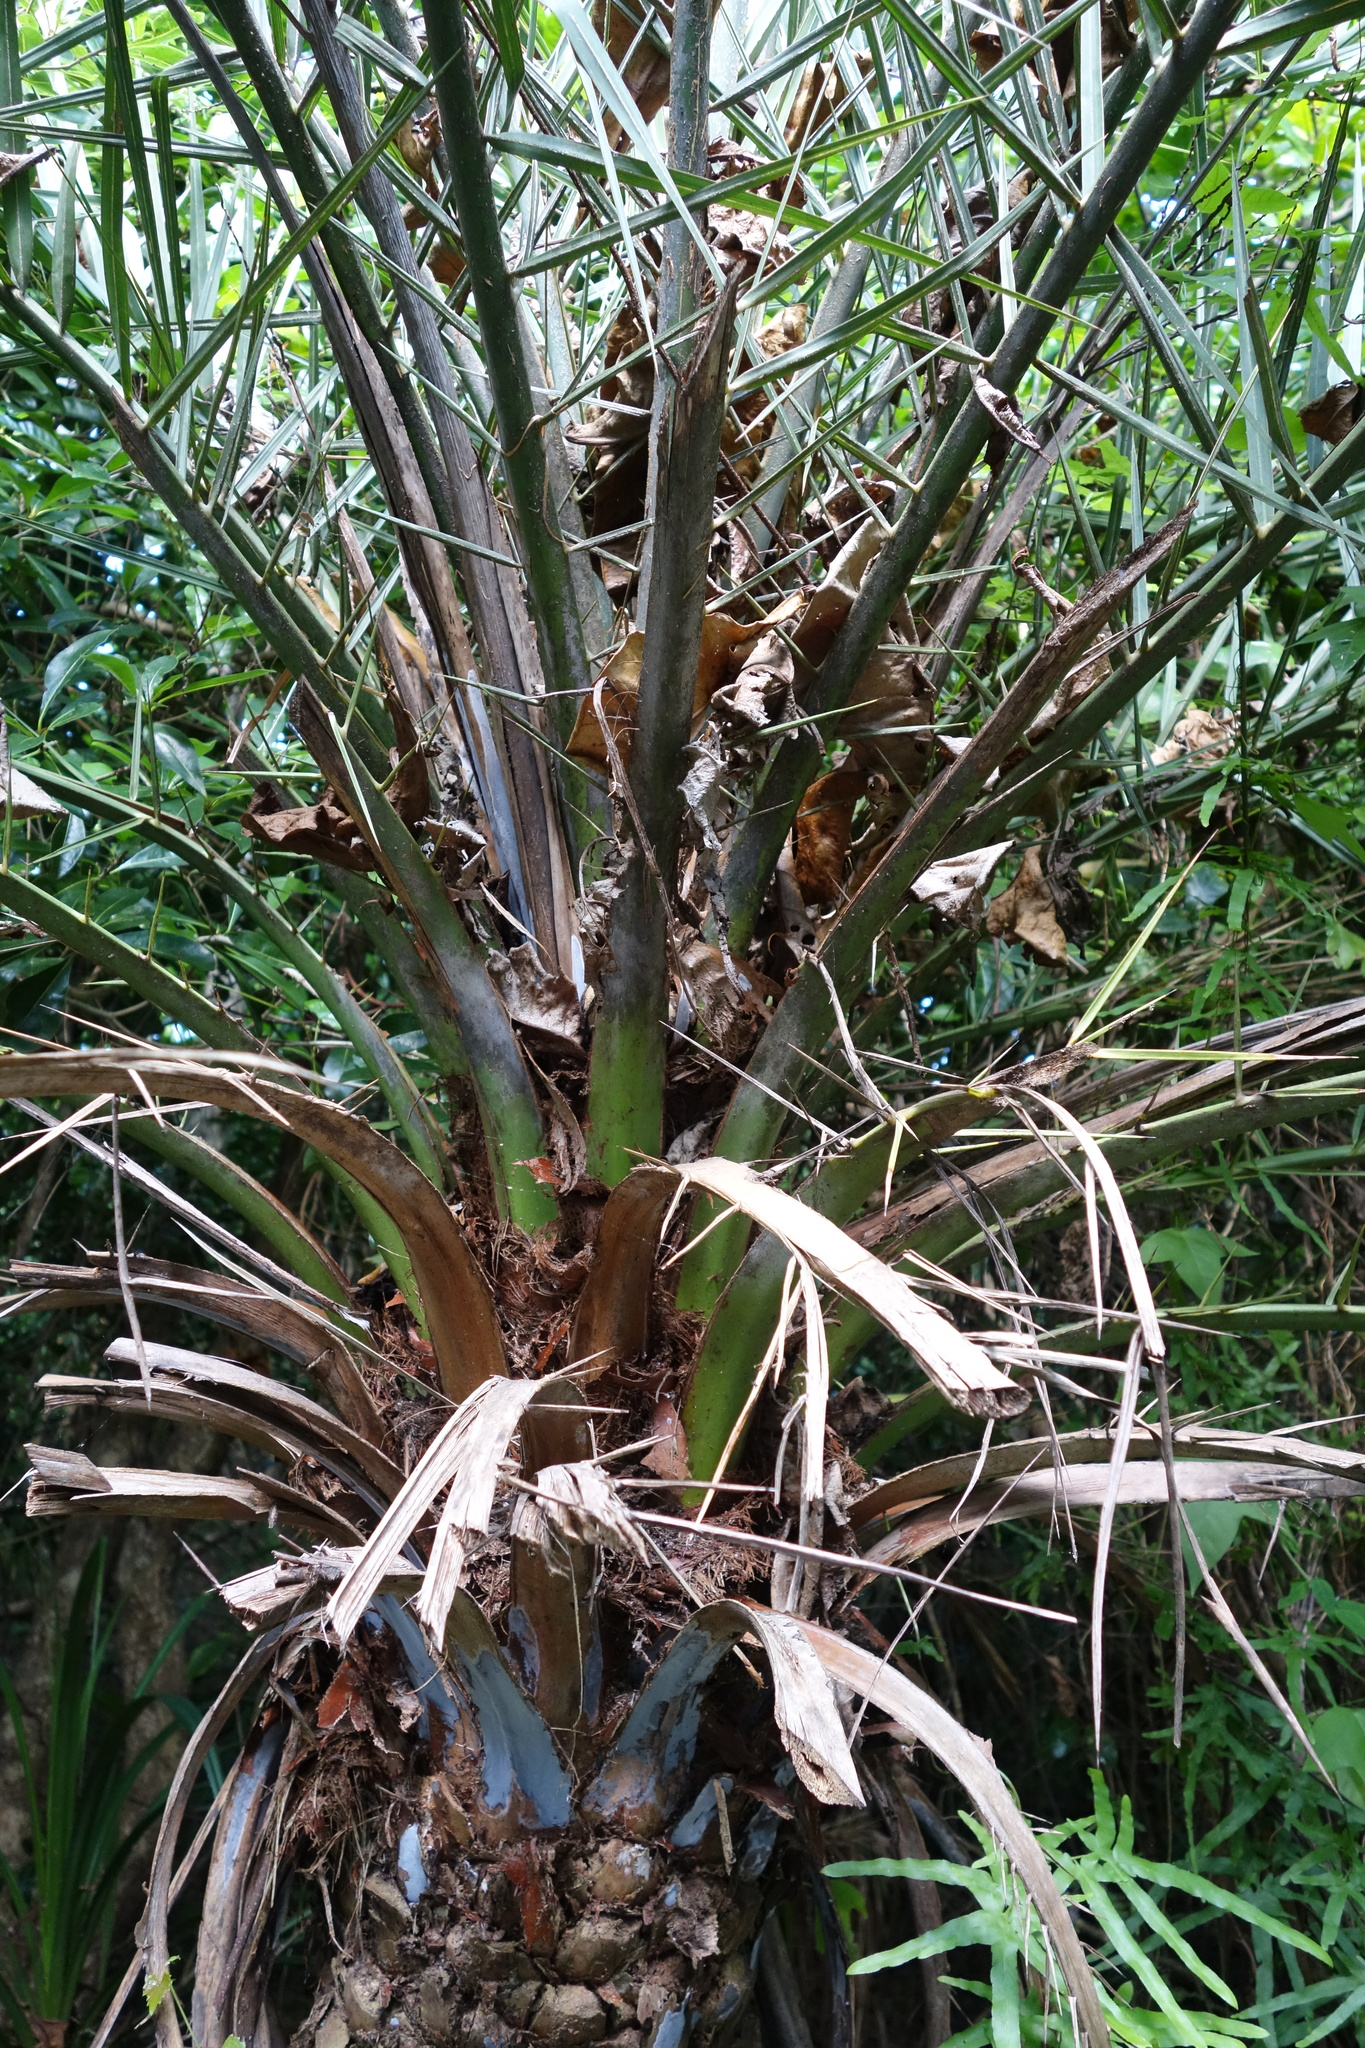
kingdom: Plantae
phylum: Tracheophyta
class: Liliopsida
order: Arecales
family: Arecaceae
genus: Phoenix
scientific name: Phoenix loureiroi
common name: Loureiro's palm
